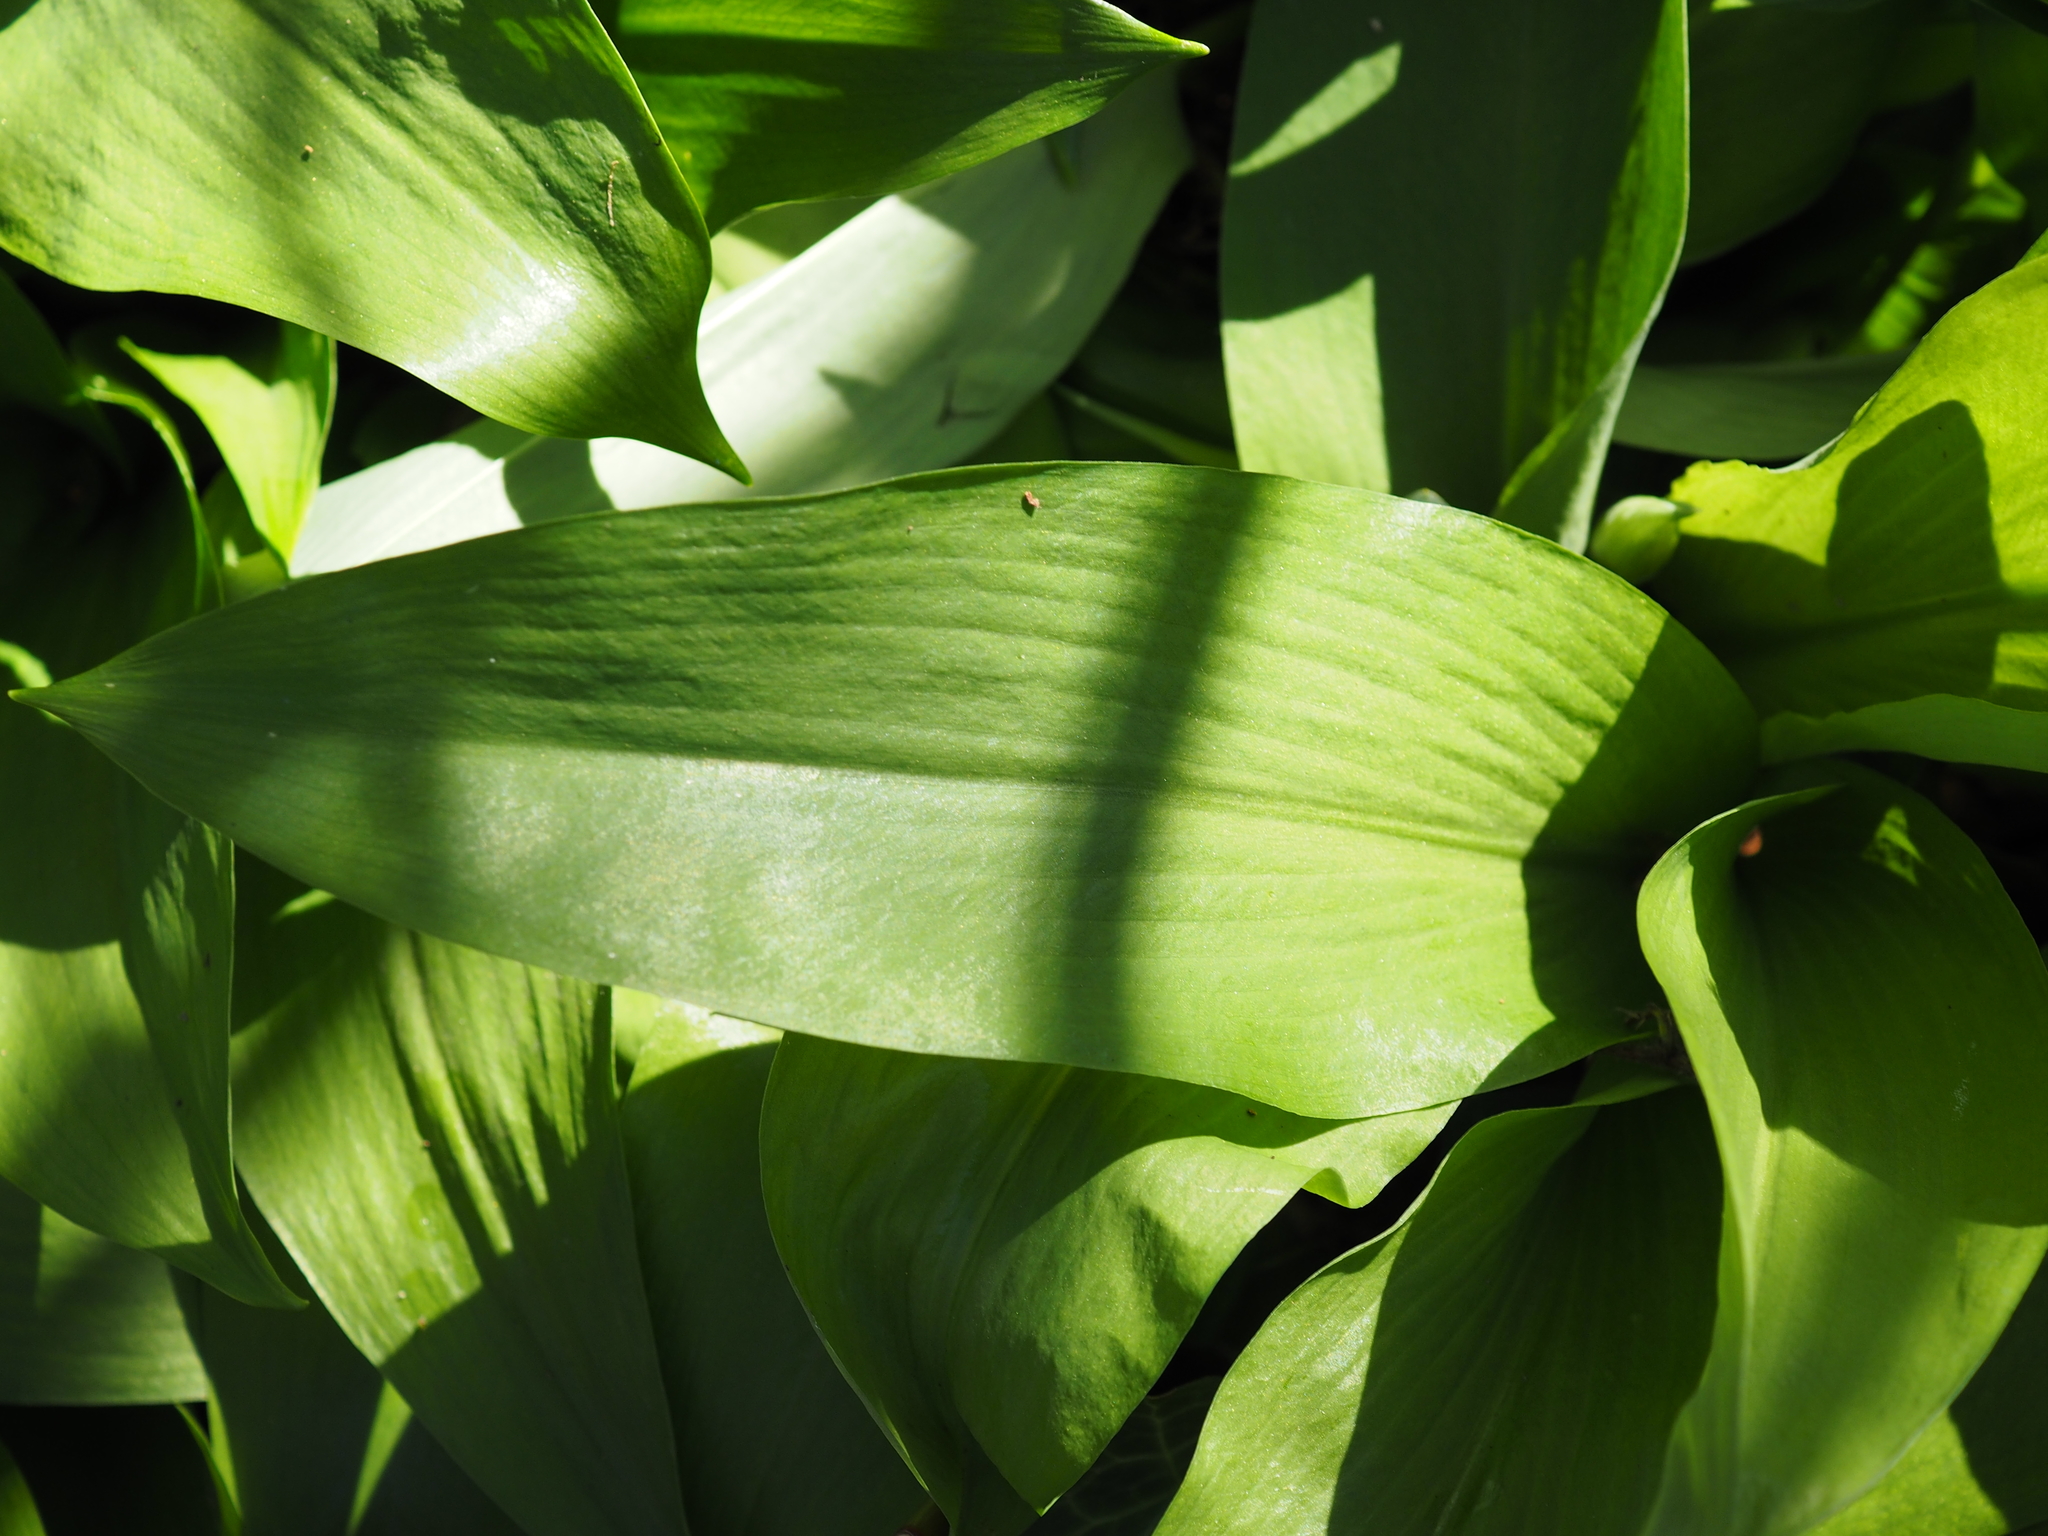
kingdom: Plantae
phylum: Tracheophyta
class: Liliopsida
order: Asparagales
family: Amaryllidaceae
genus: Allium
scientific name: Allium ursinum
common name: Ramsons
